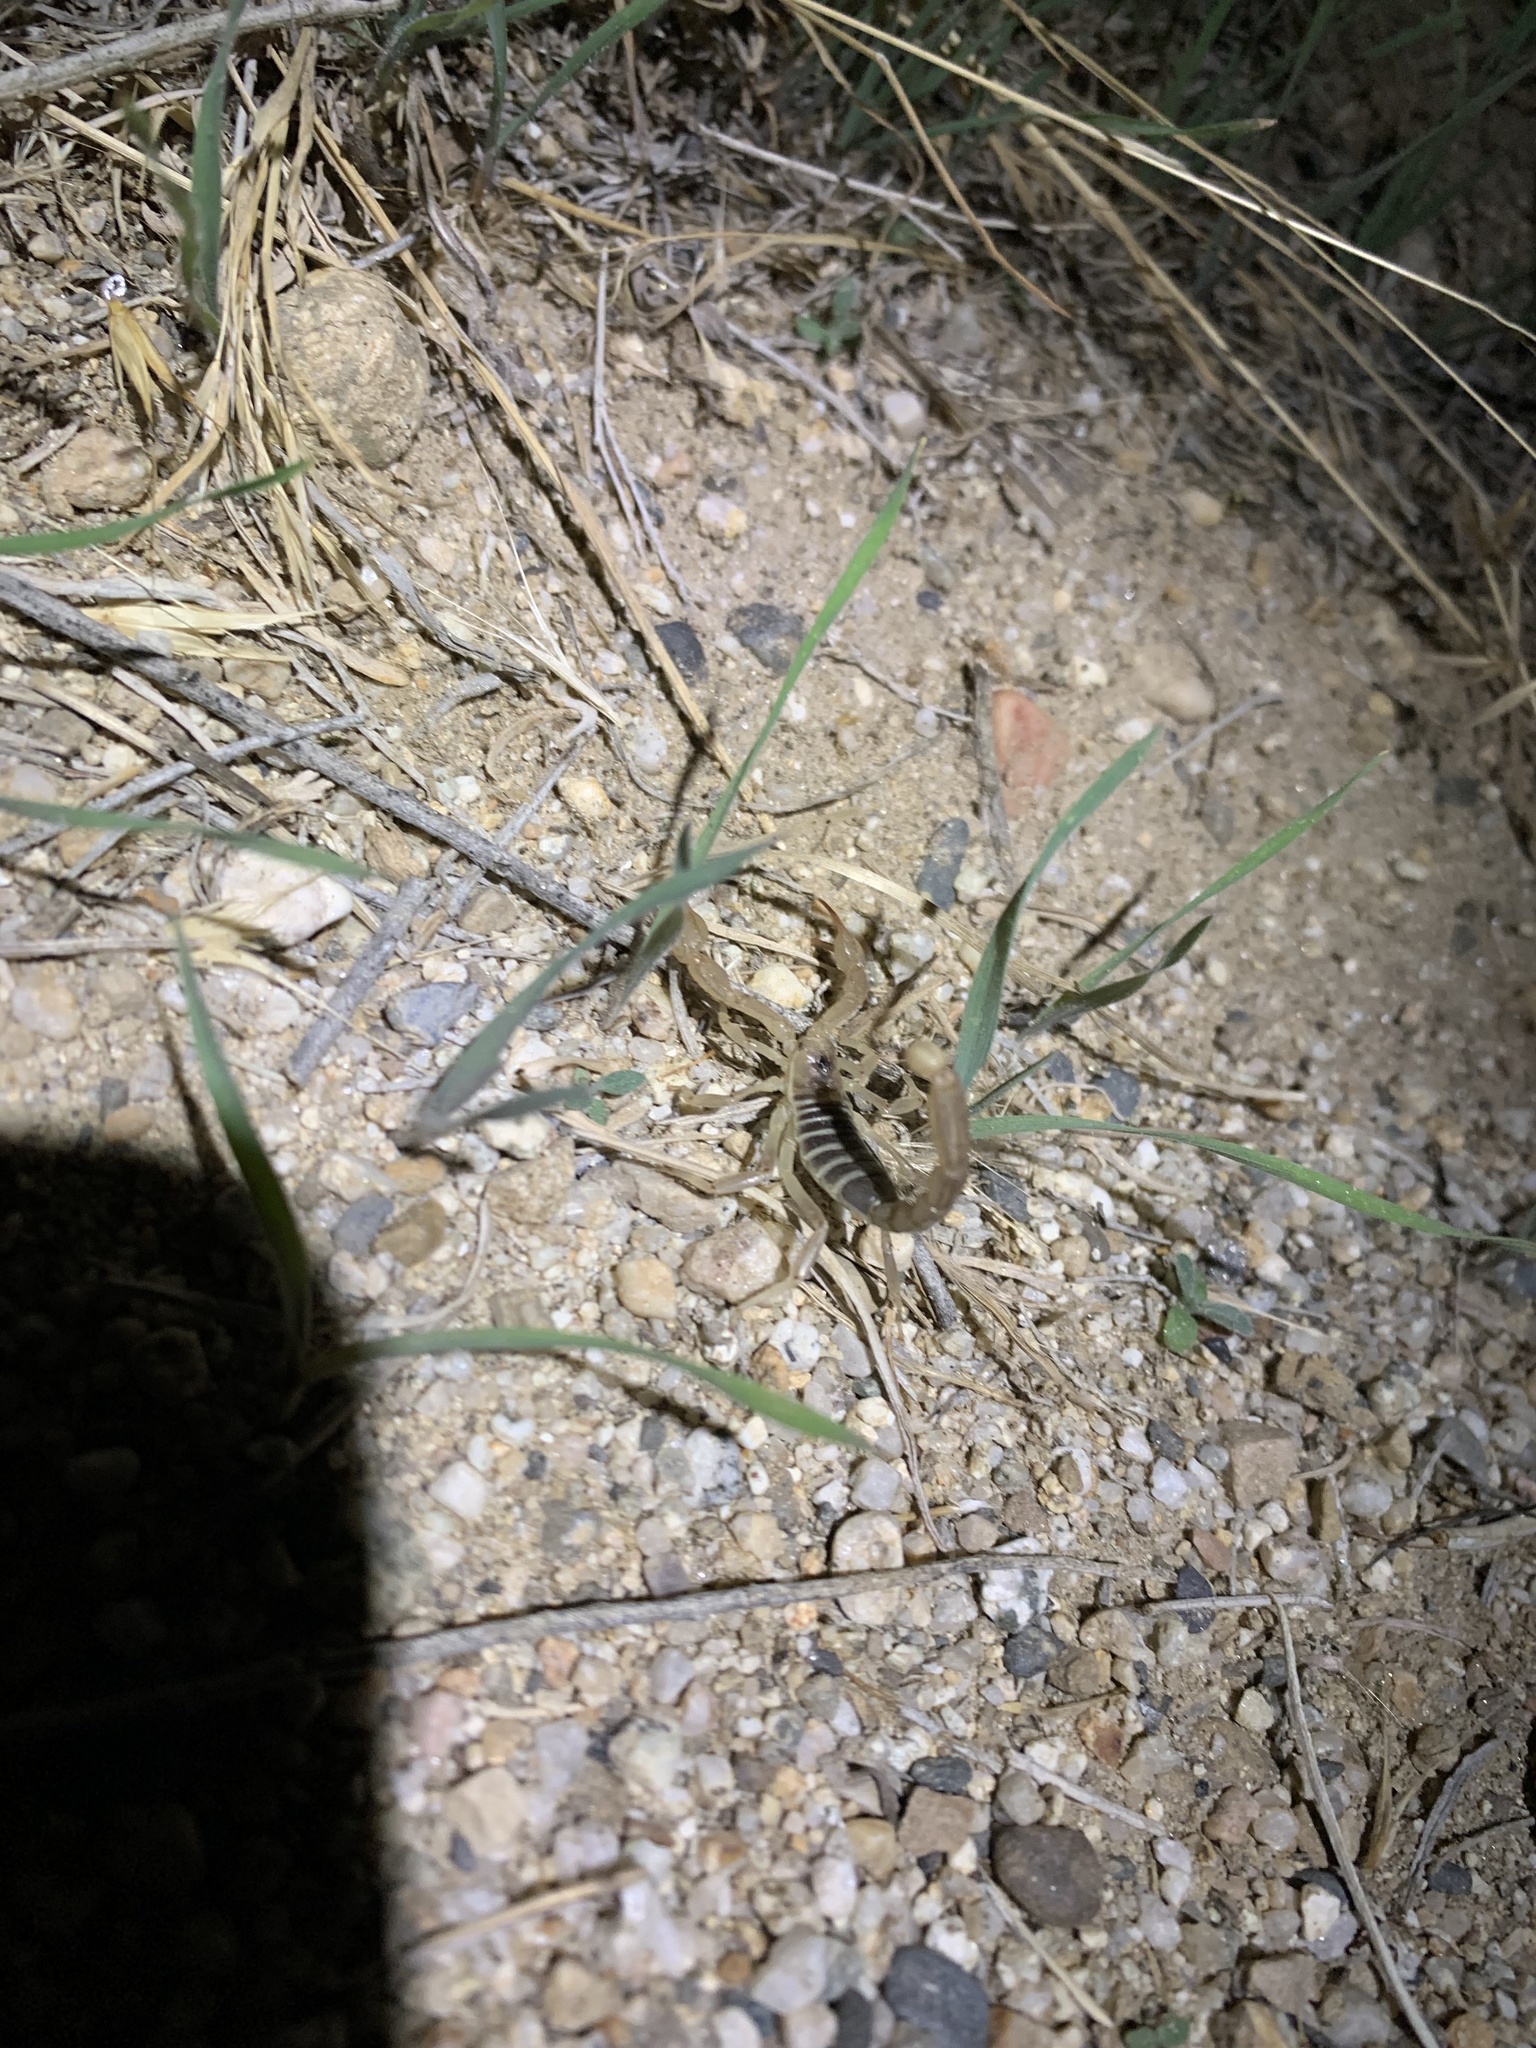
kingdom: Animalia
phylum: Arthropoda
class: Arachnida
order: Scorpiones
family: Vaejovidae
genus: Paruroctonus
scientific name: Paruroctonus boreus
